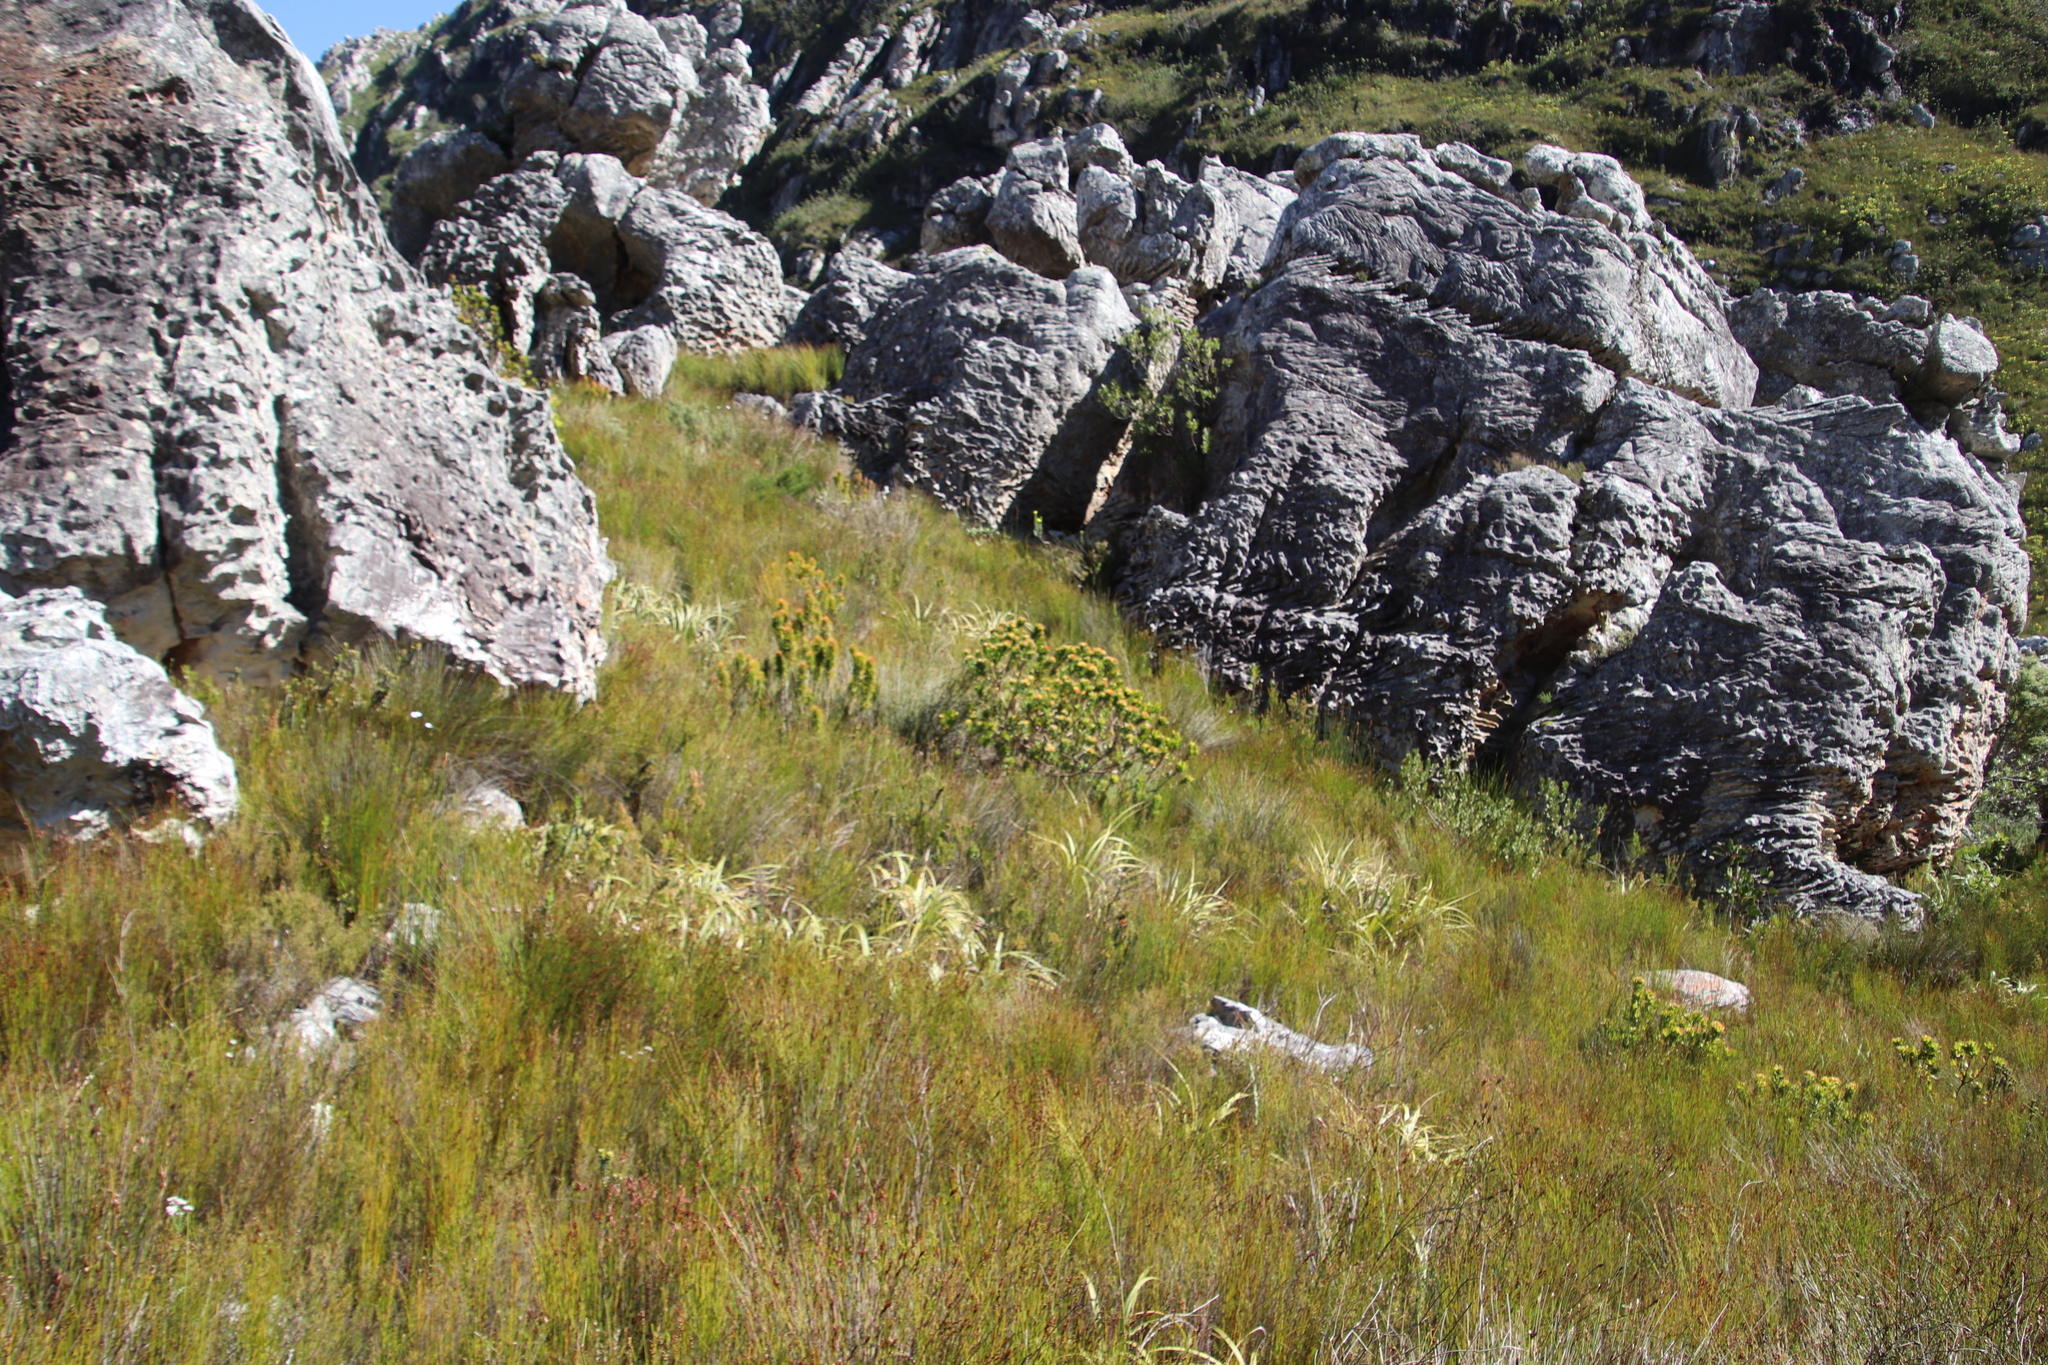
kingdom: Plantae
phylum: Tracheophyta
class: Magnoliopsida
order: Proteales
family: Proteaceae
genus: Leucospermum
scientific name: Leucospermum oleifolium
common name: Matches
